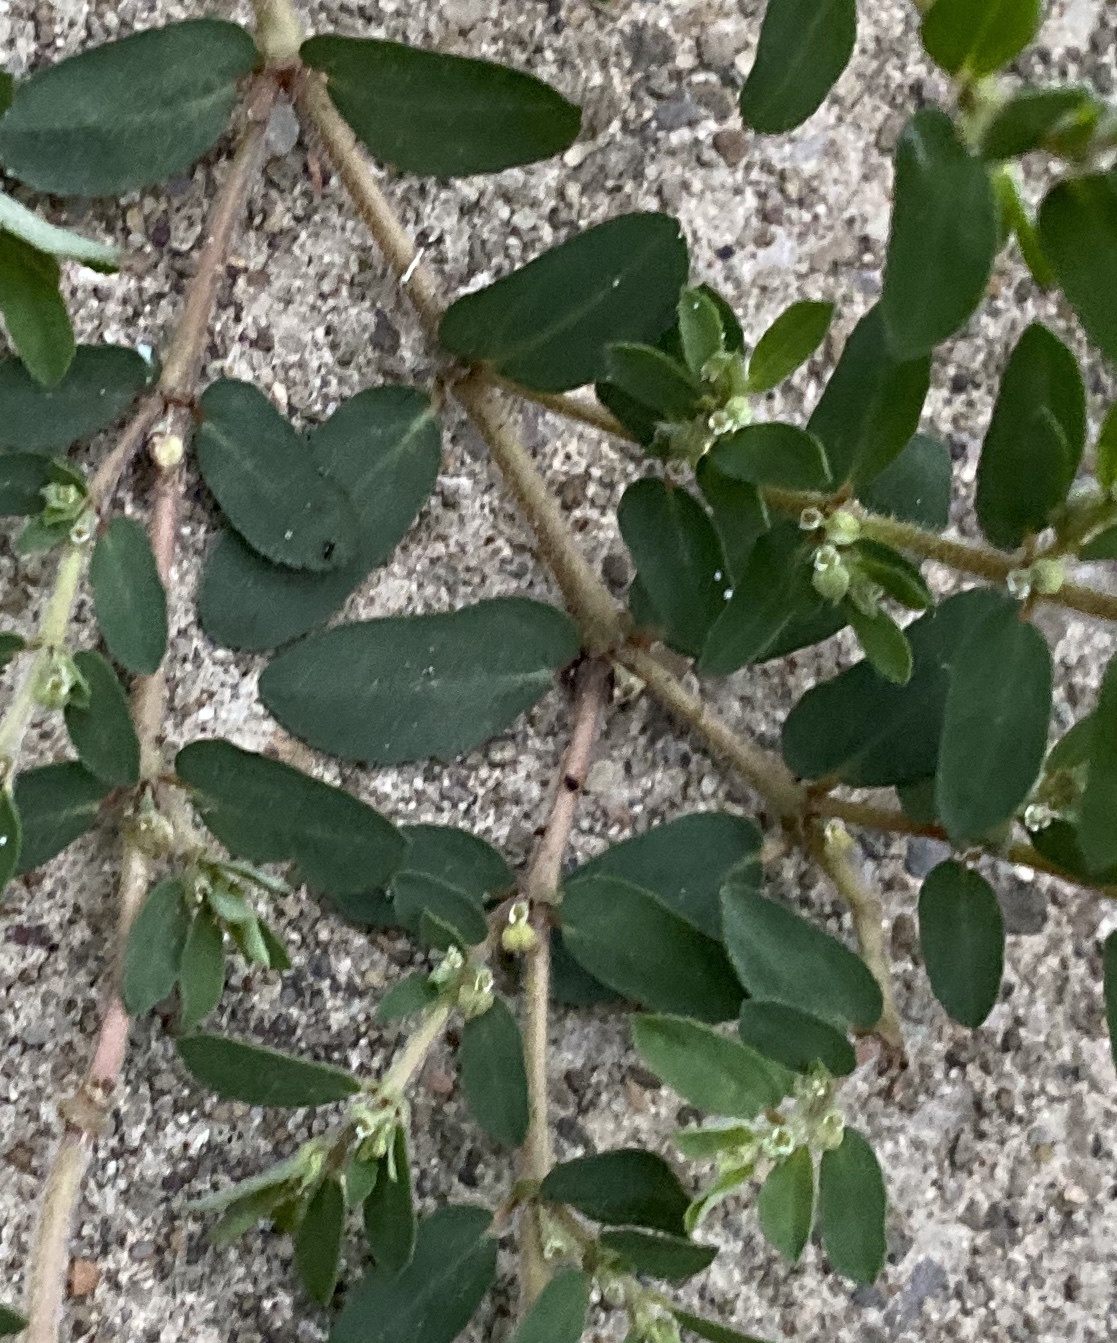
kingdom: Plantae
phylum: Tracheophyta
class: Magnoliopsida
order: Malpighiales
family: Euphorbiaceae
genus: Euphorbia
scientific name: Euphorbia maculata
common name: Spotted spurge
